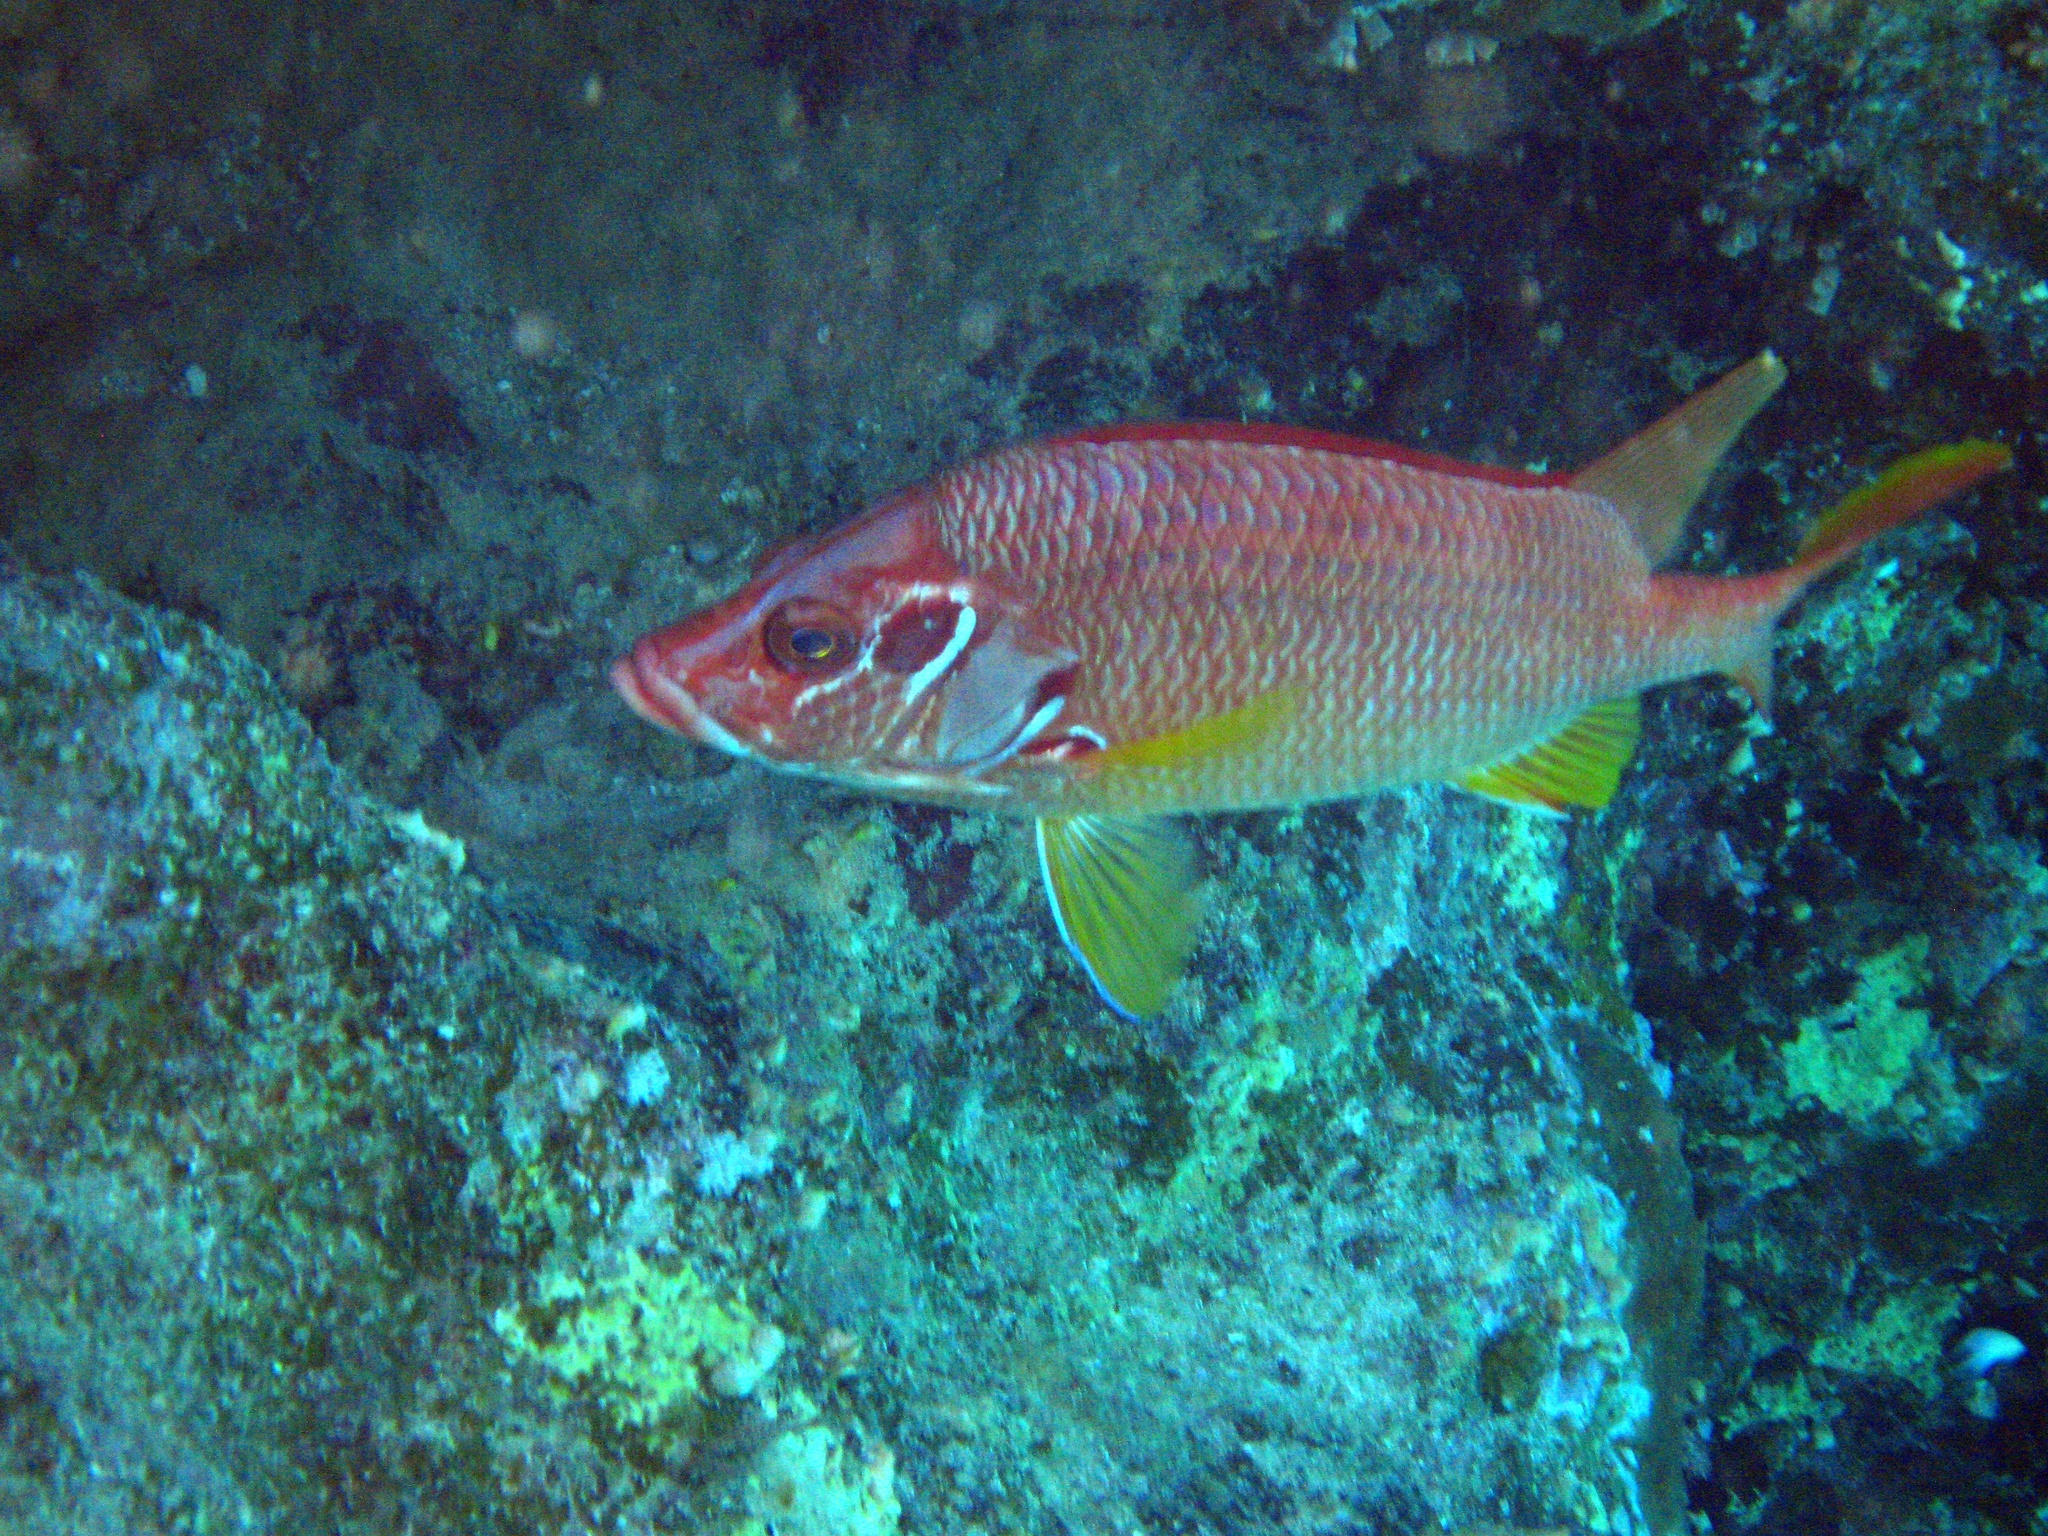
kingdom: Animalia
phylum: Chordata
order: Beryciformes
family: Holocentridae
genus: Sargocentron
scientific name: Sargocentron spiniferum
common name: Giant squirrelfish
